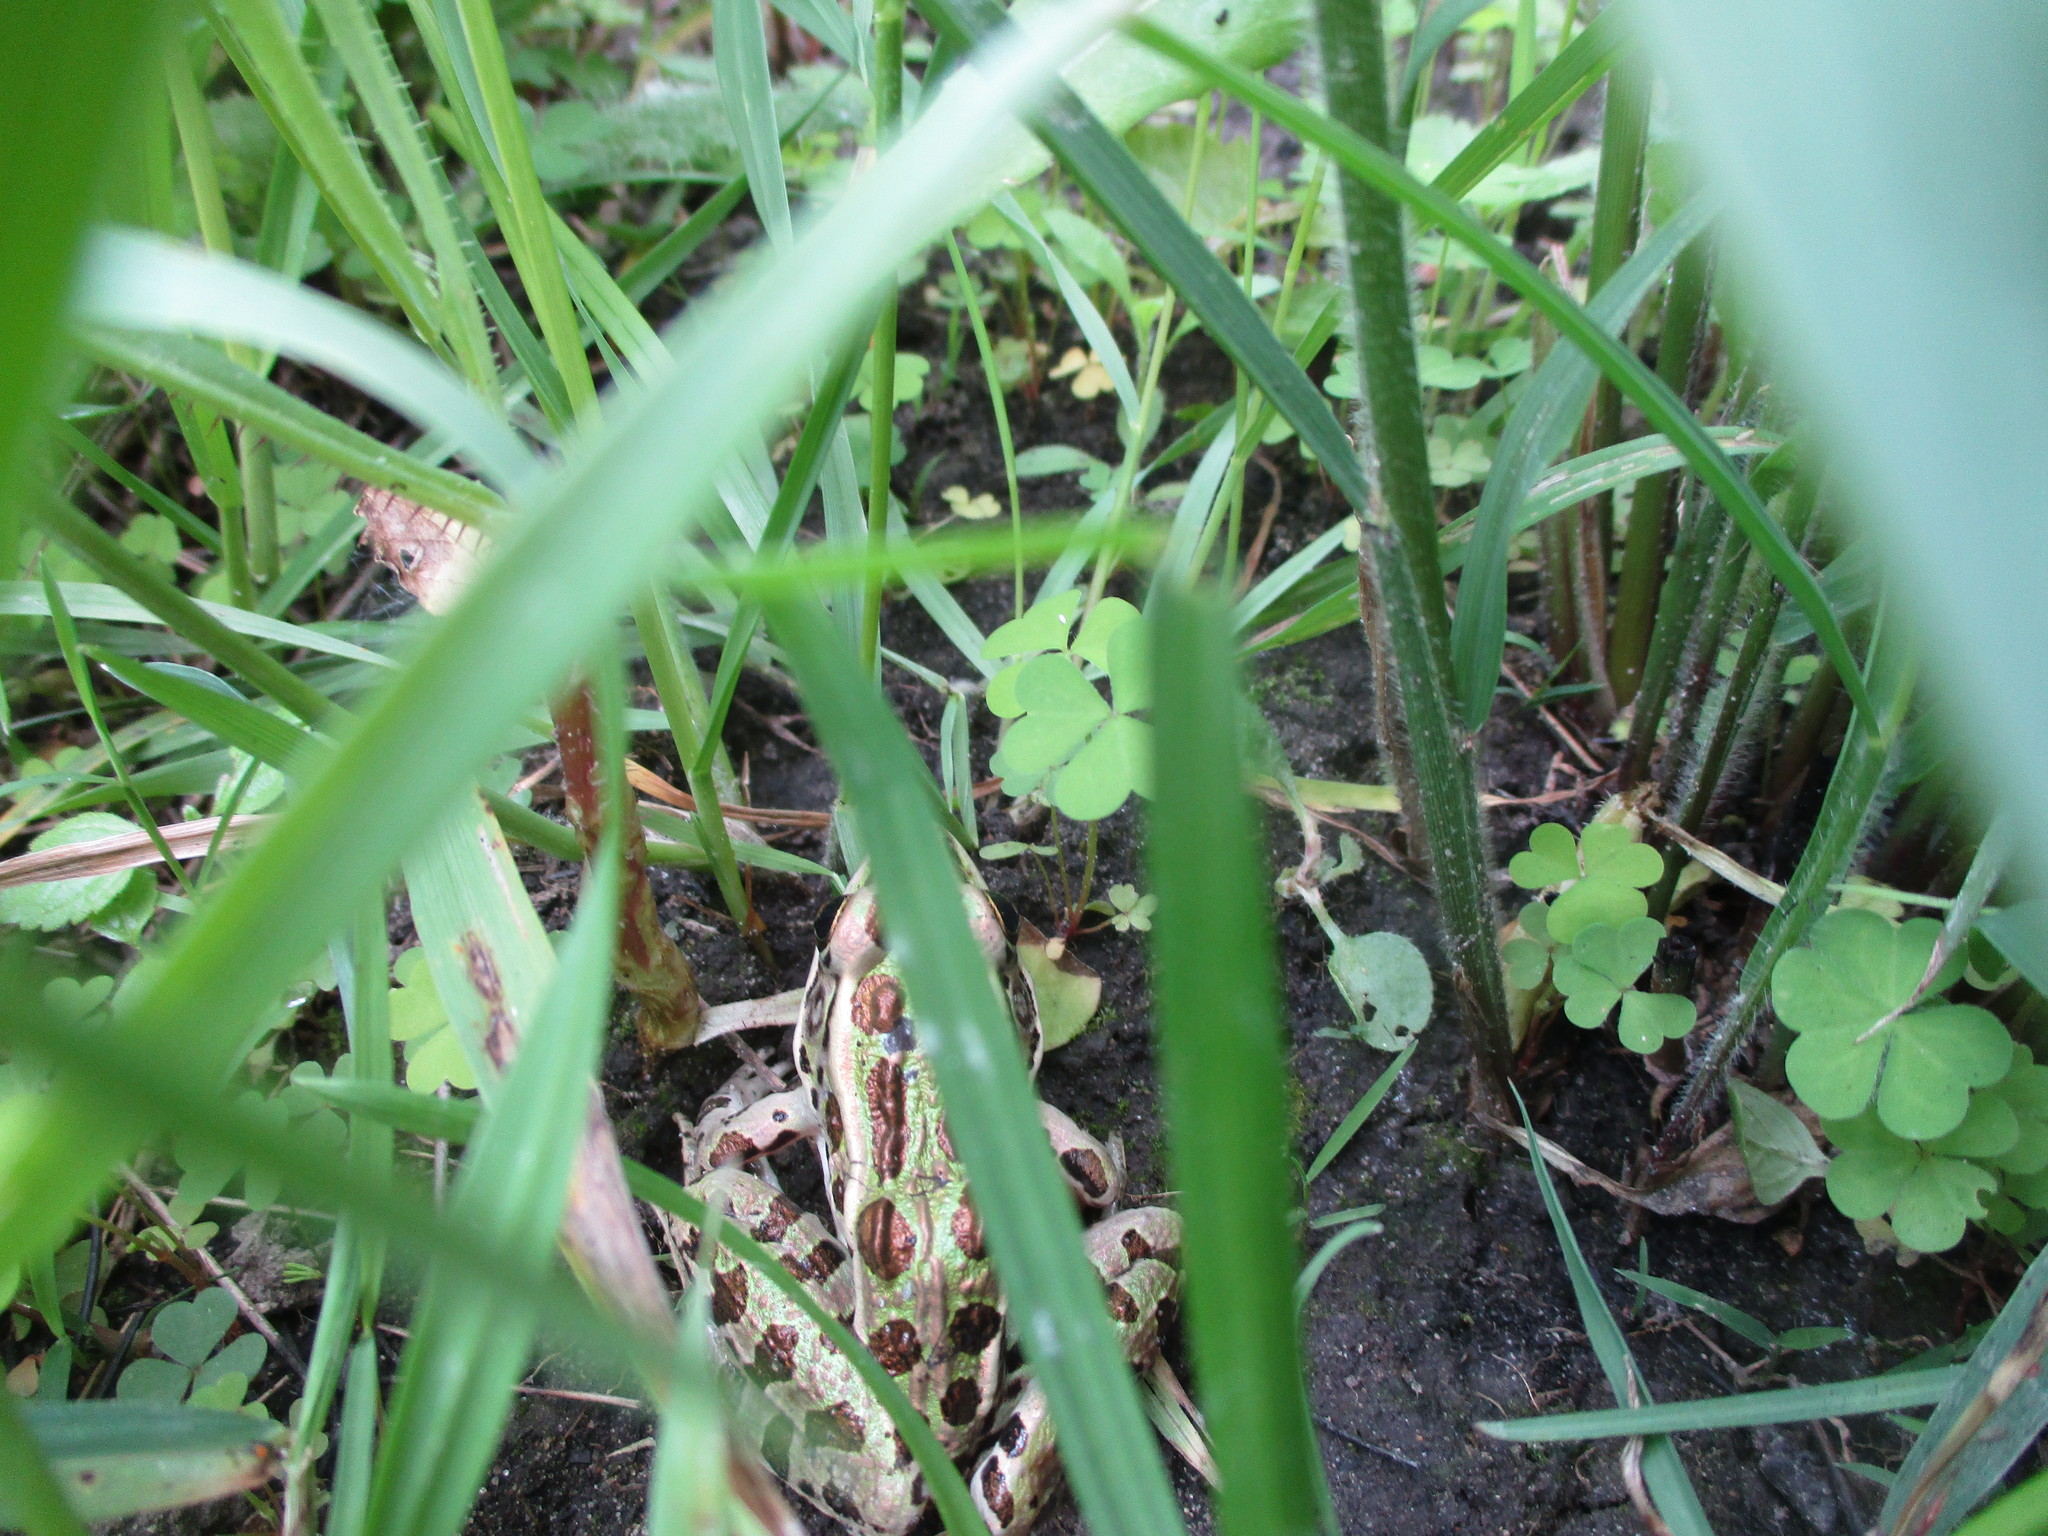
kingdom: Animalia
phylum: Chordata
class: Amphibia
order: Anura
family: Ranidae
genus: Lithobates
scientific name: Lithobates pipiens
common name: Northern leopard frog
